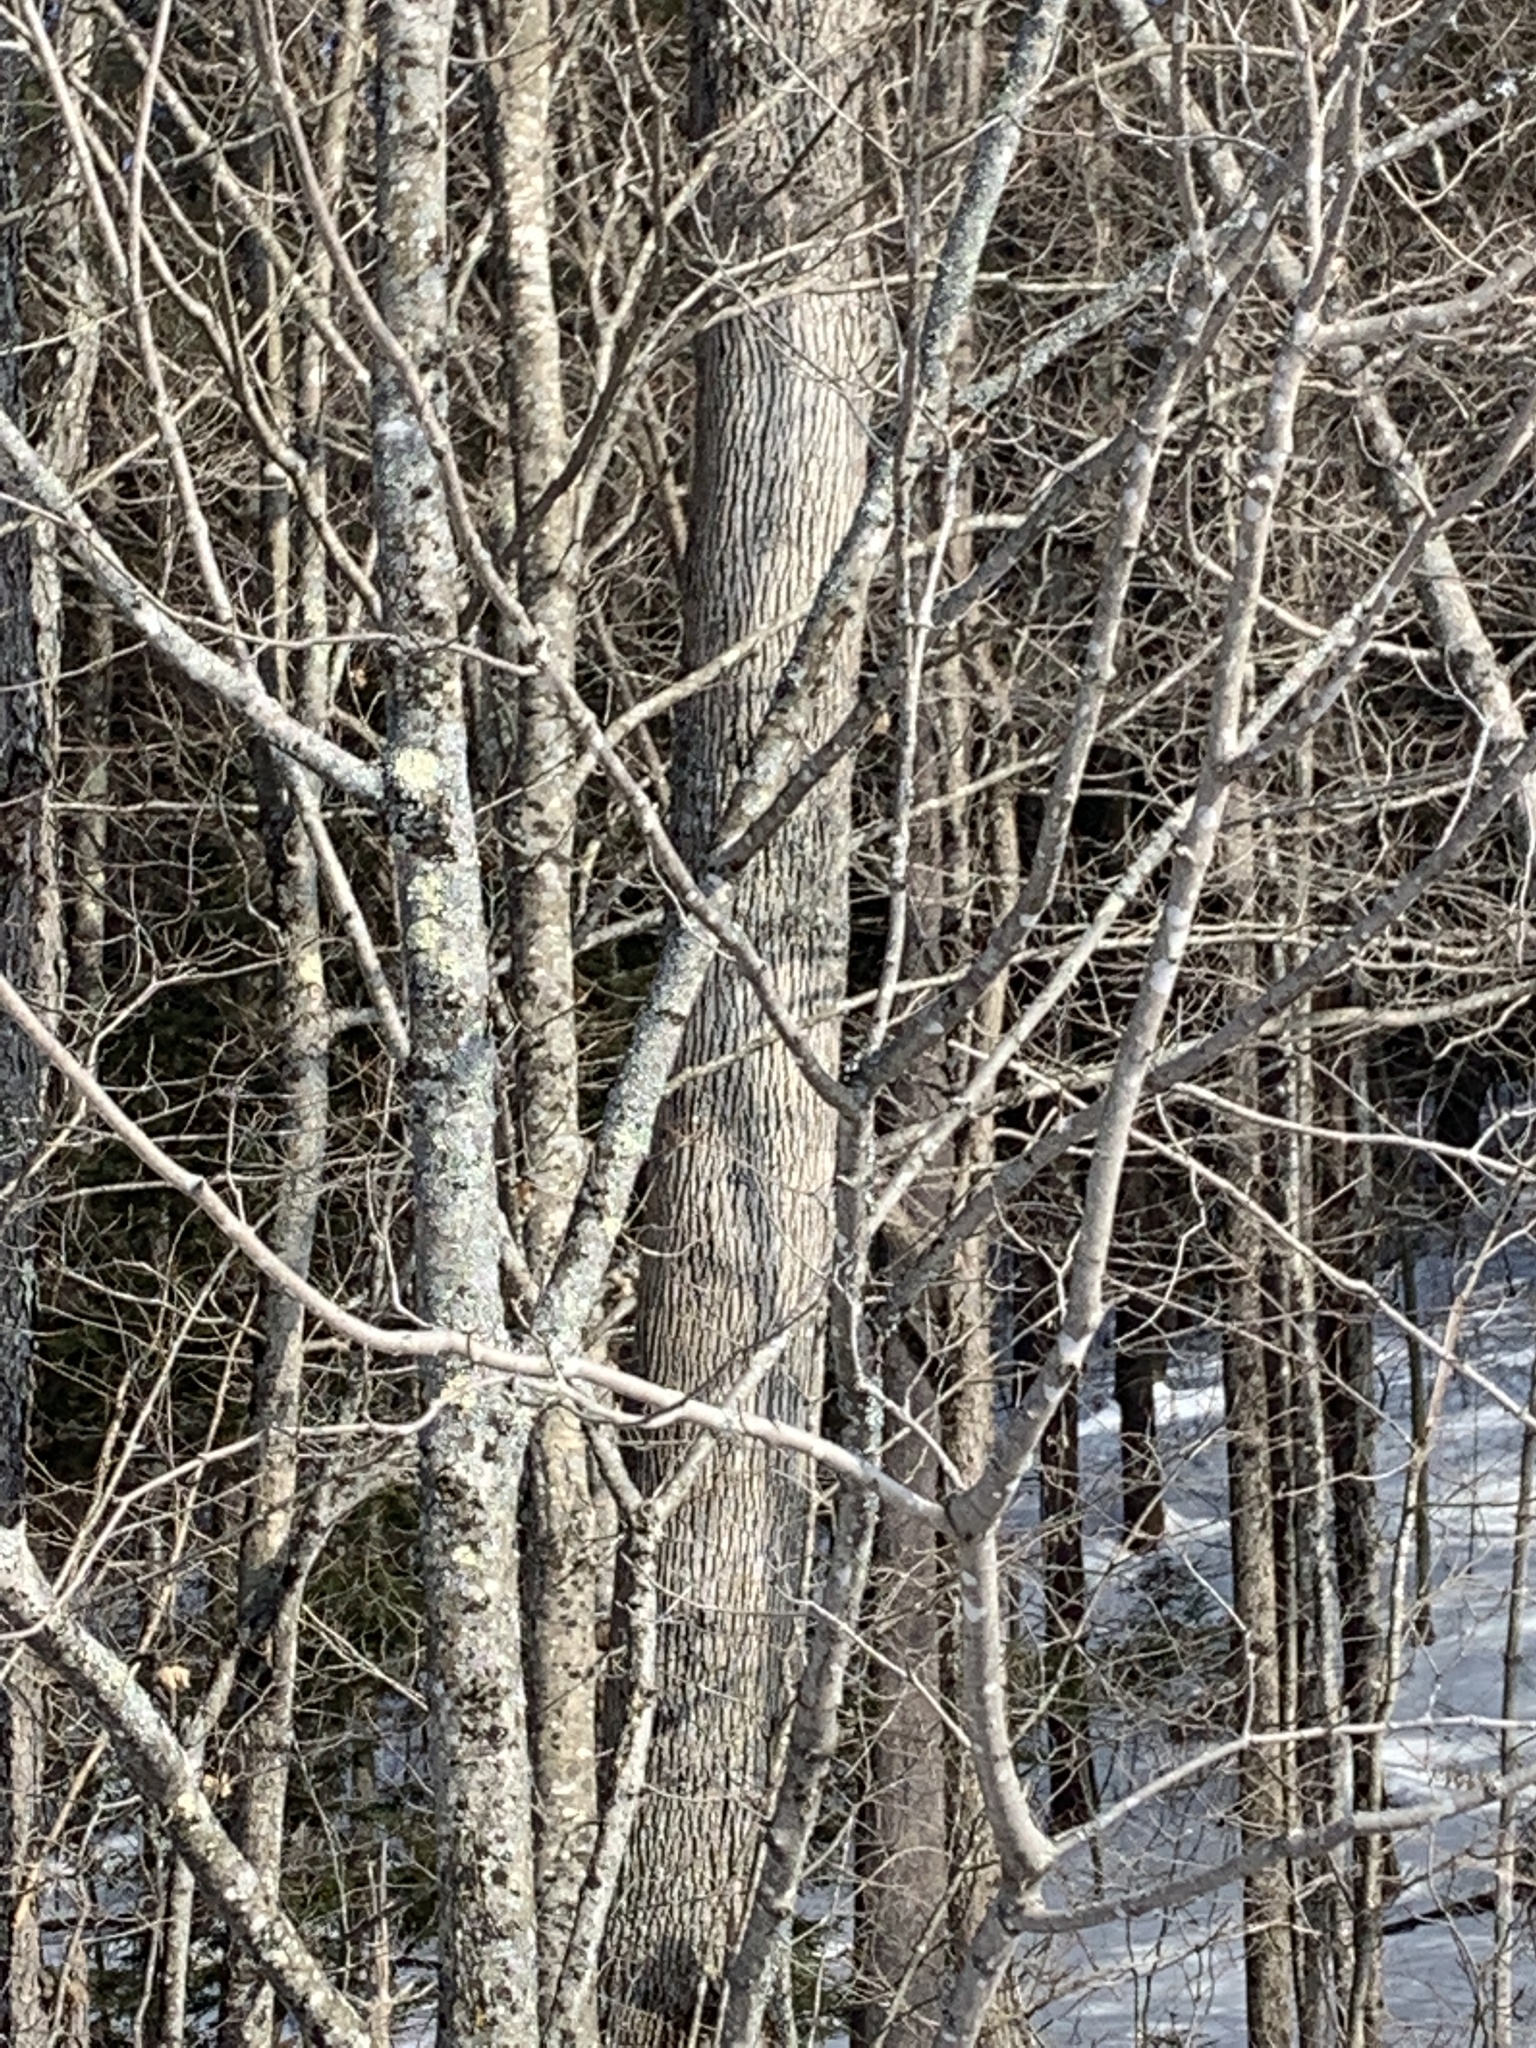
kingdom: Plantae
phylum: Tracheophyta
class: Magnoliopsida
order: Lamiales
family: Oleaceae
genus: Fraxinus
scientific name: Fraxinus americana
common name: White ash
